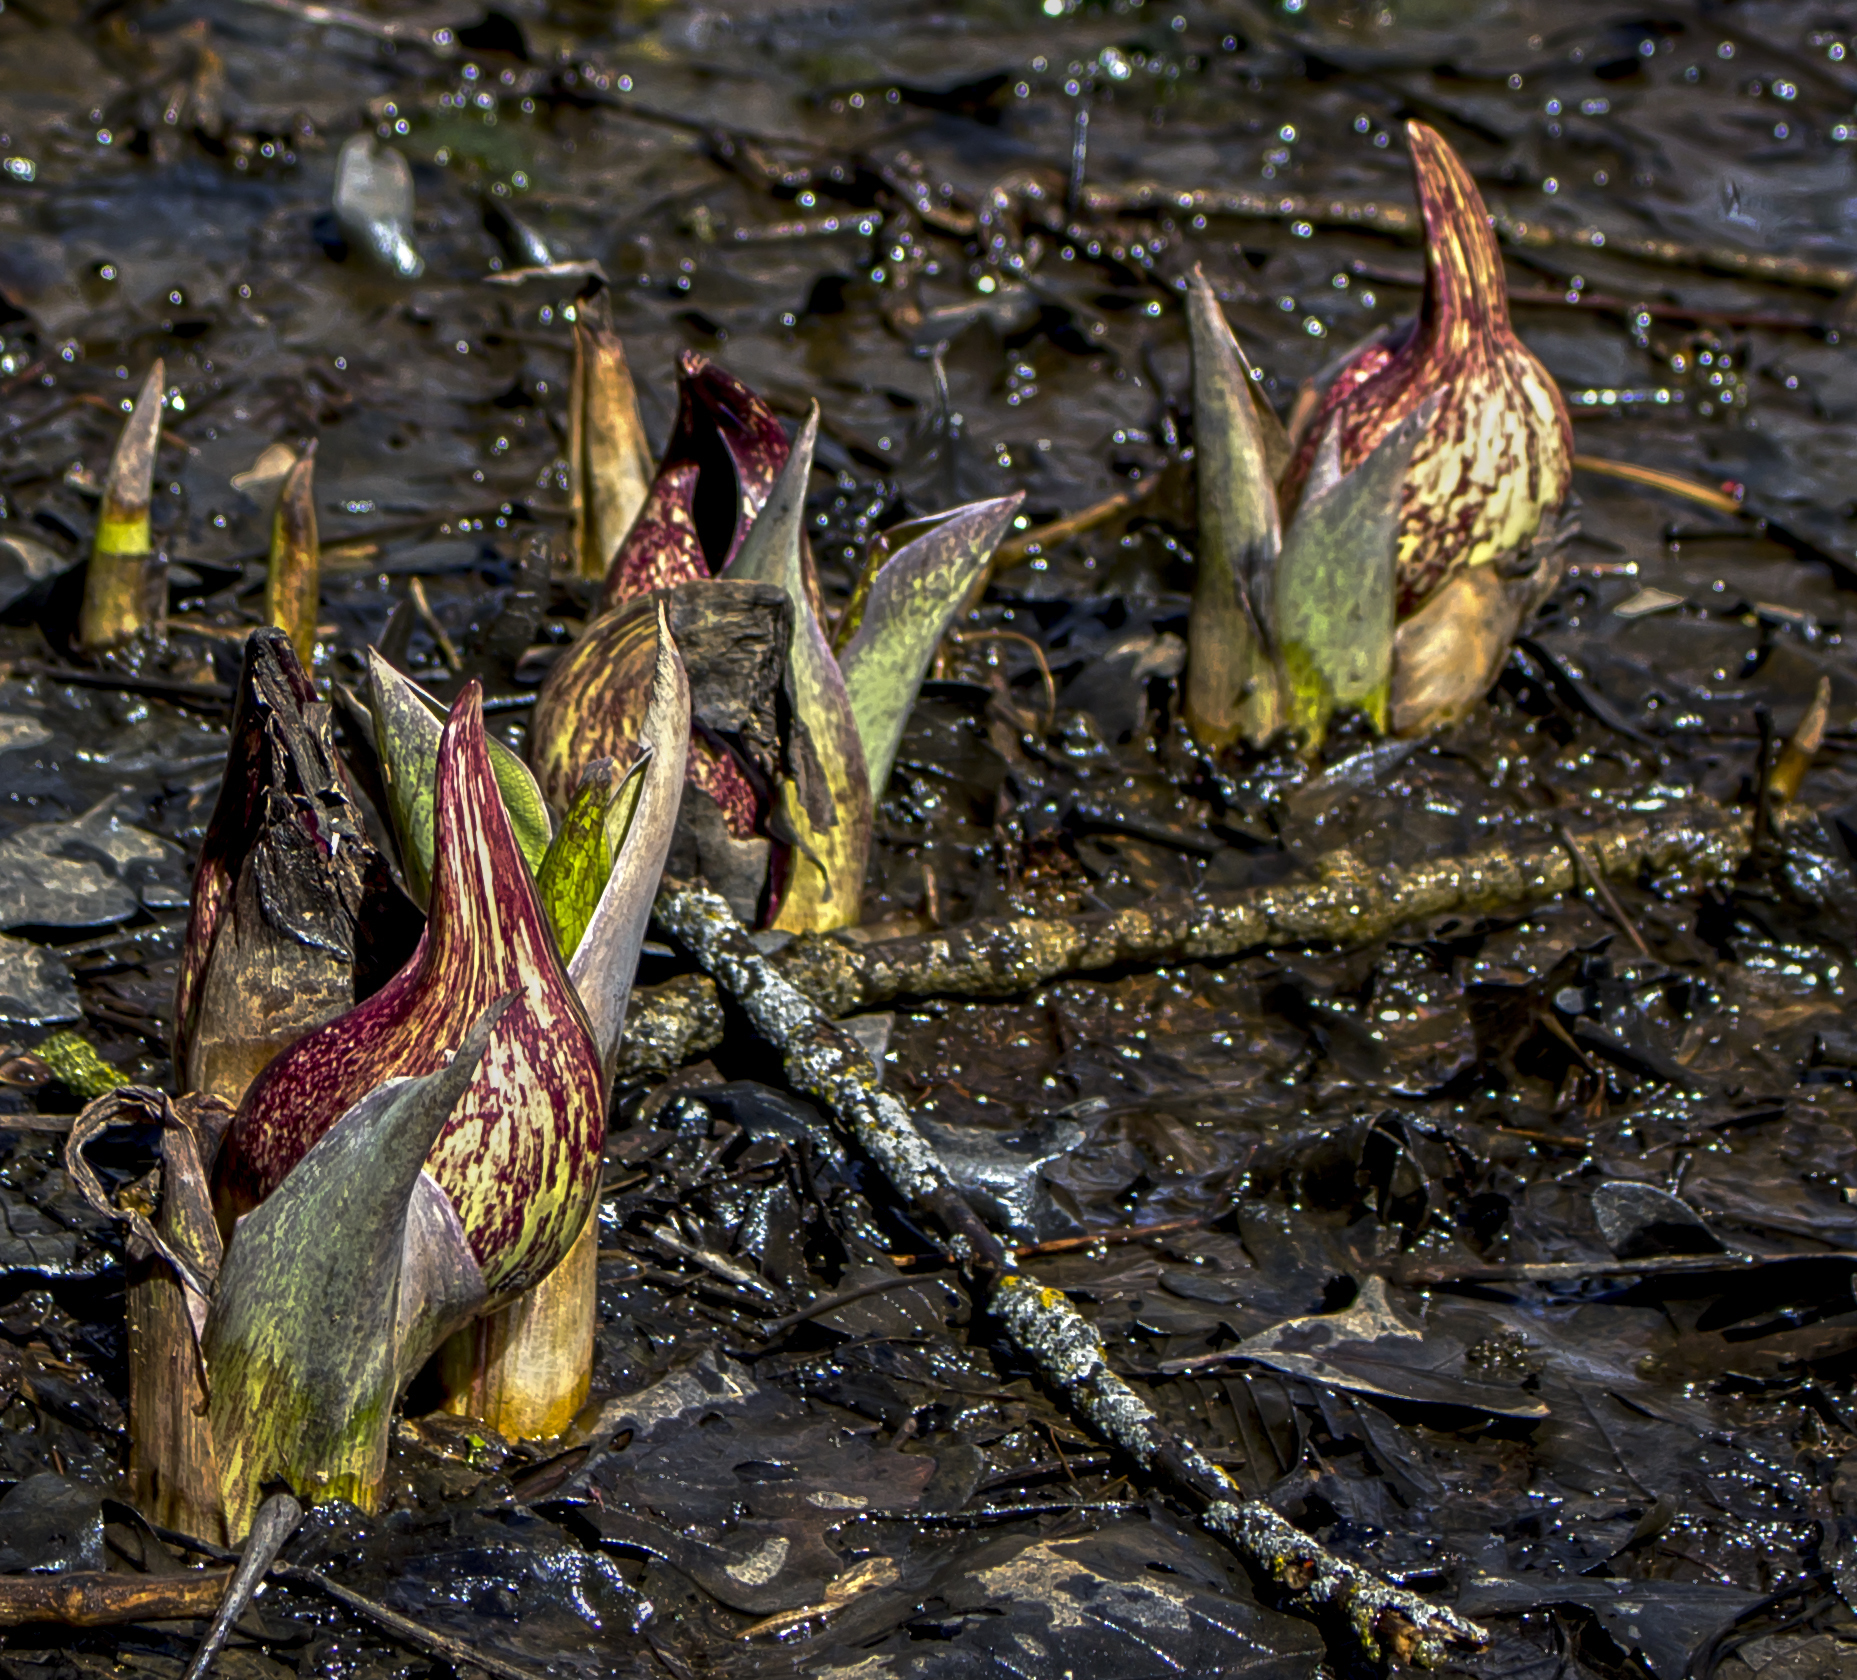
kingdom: Plantae
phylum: Tracheophyta
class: Liliopsida
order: Alismatales
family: Araceae
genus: Symplocarpus
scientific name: Symplocarpus foetidus
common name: Eastern skunk cabbage
